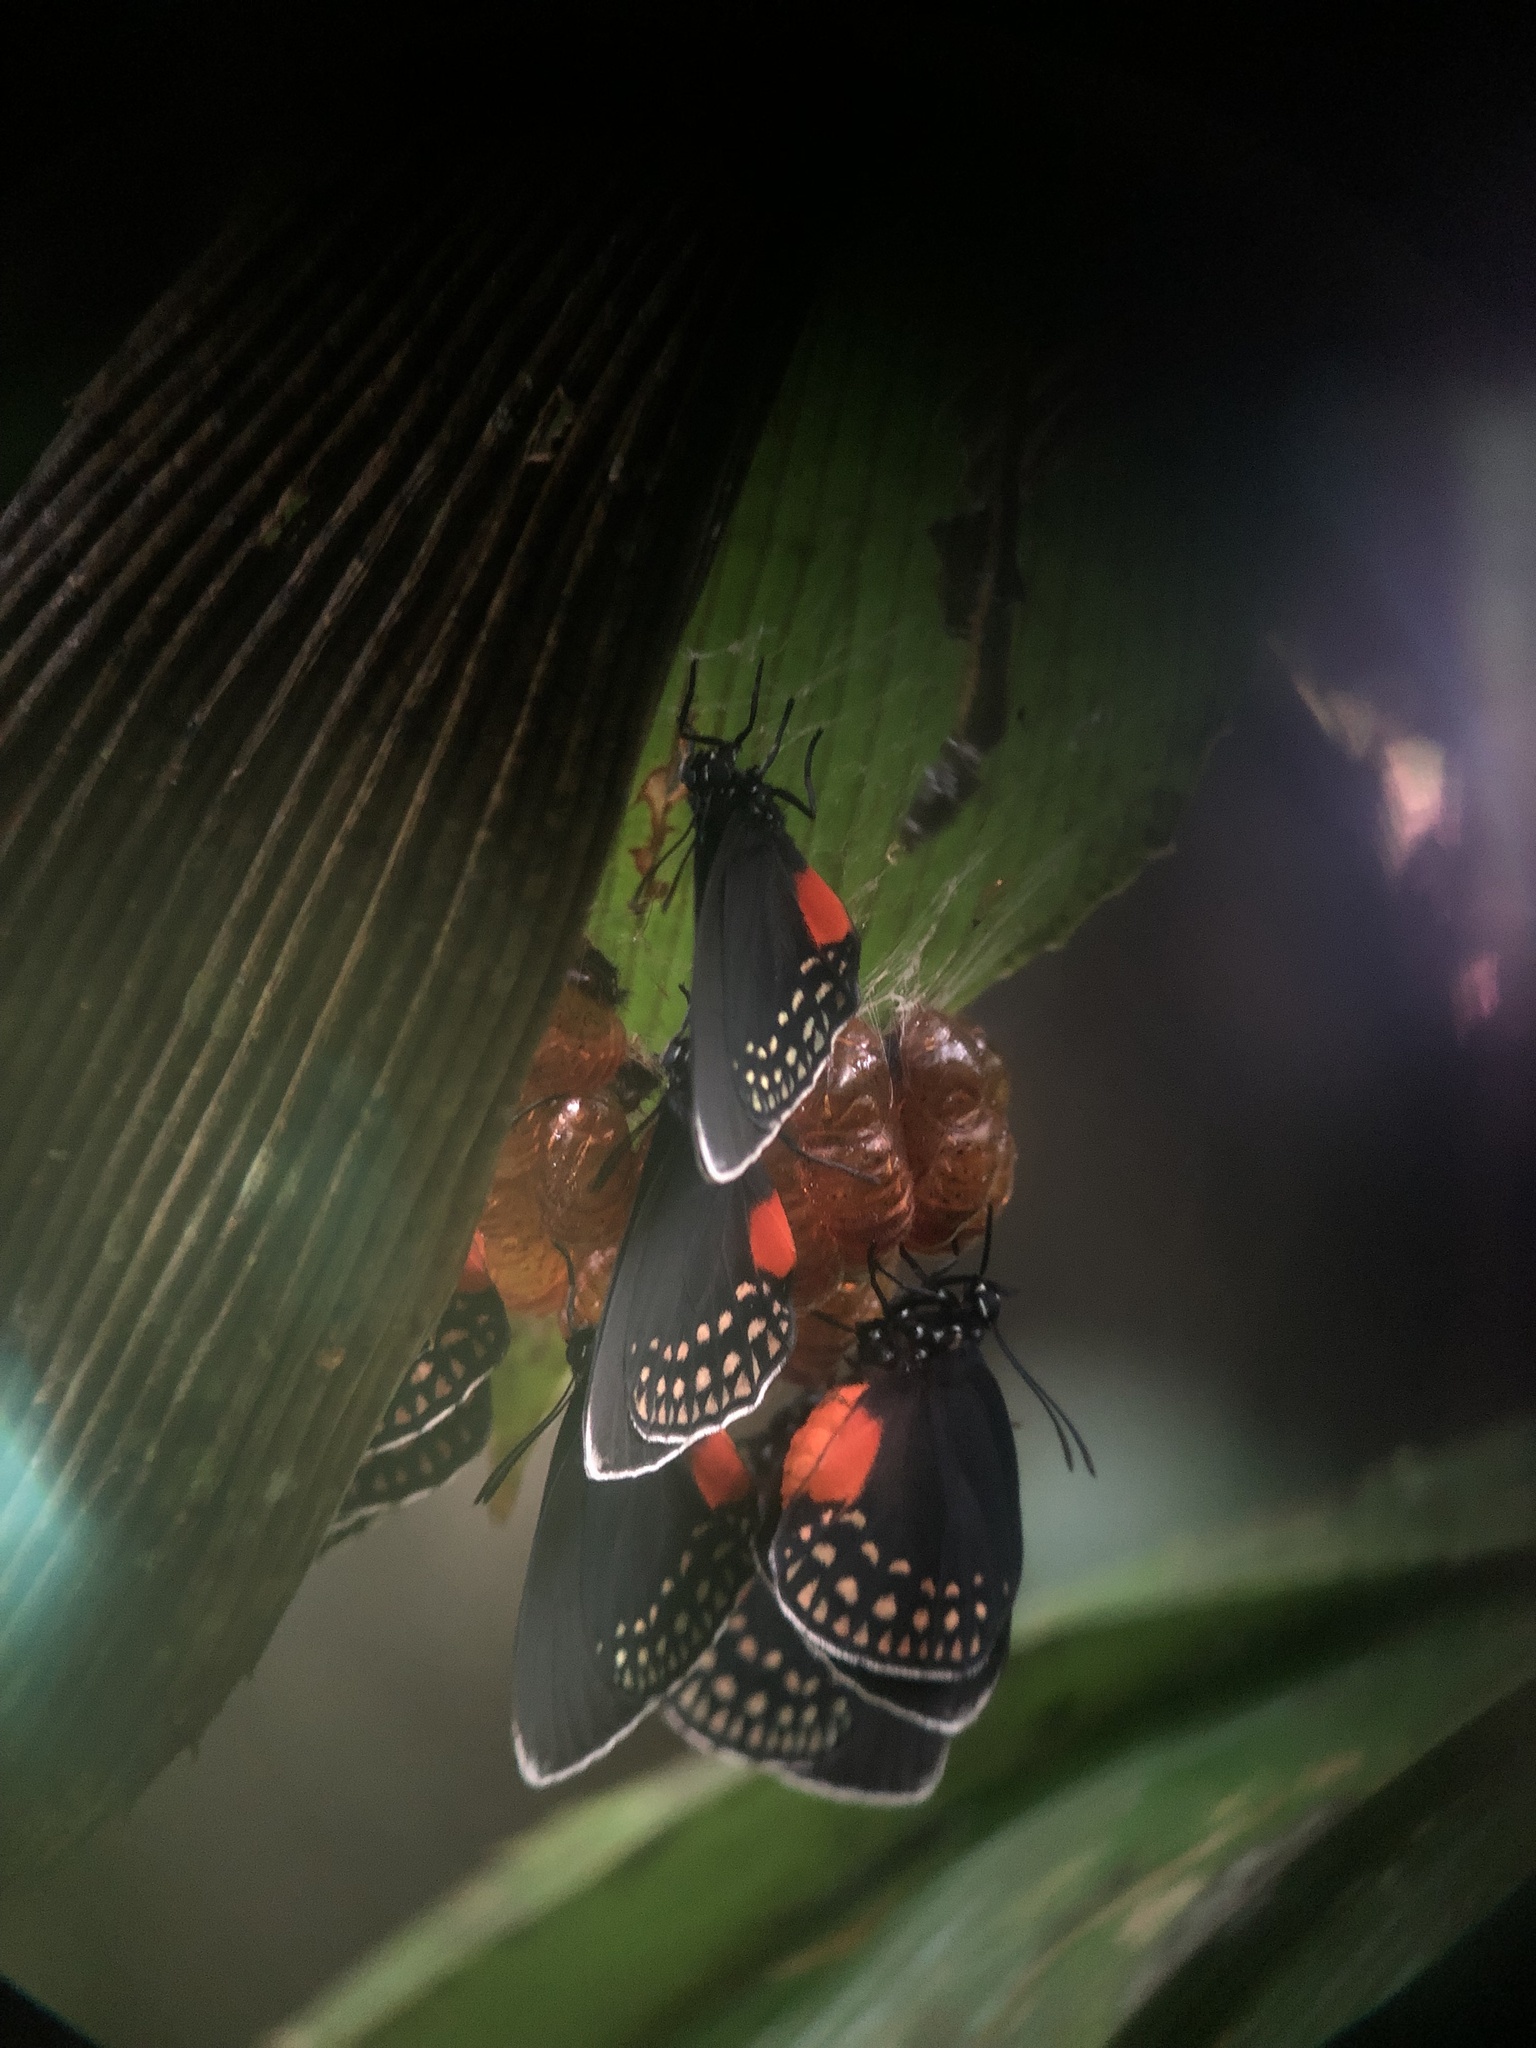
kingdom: Animalia
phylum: Arthropoda
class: Insecta
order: Lepidoptera
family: Lycaenidae
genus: Eumaeus
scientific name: Eumaeus godartii
